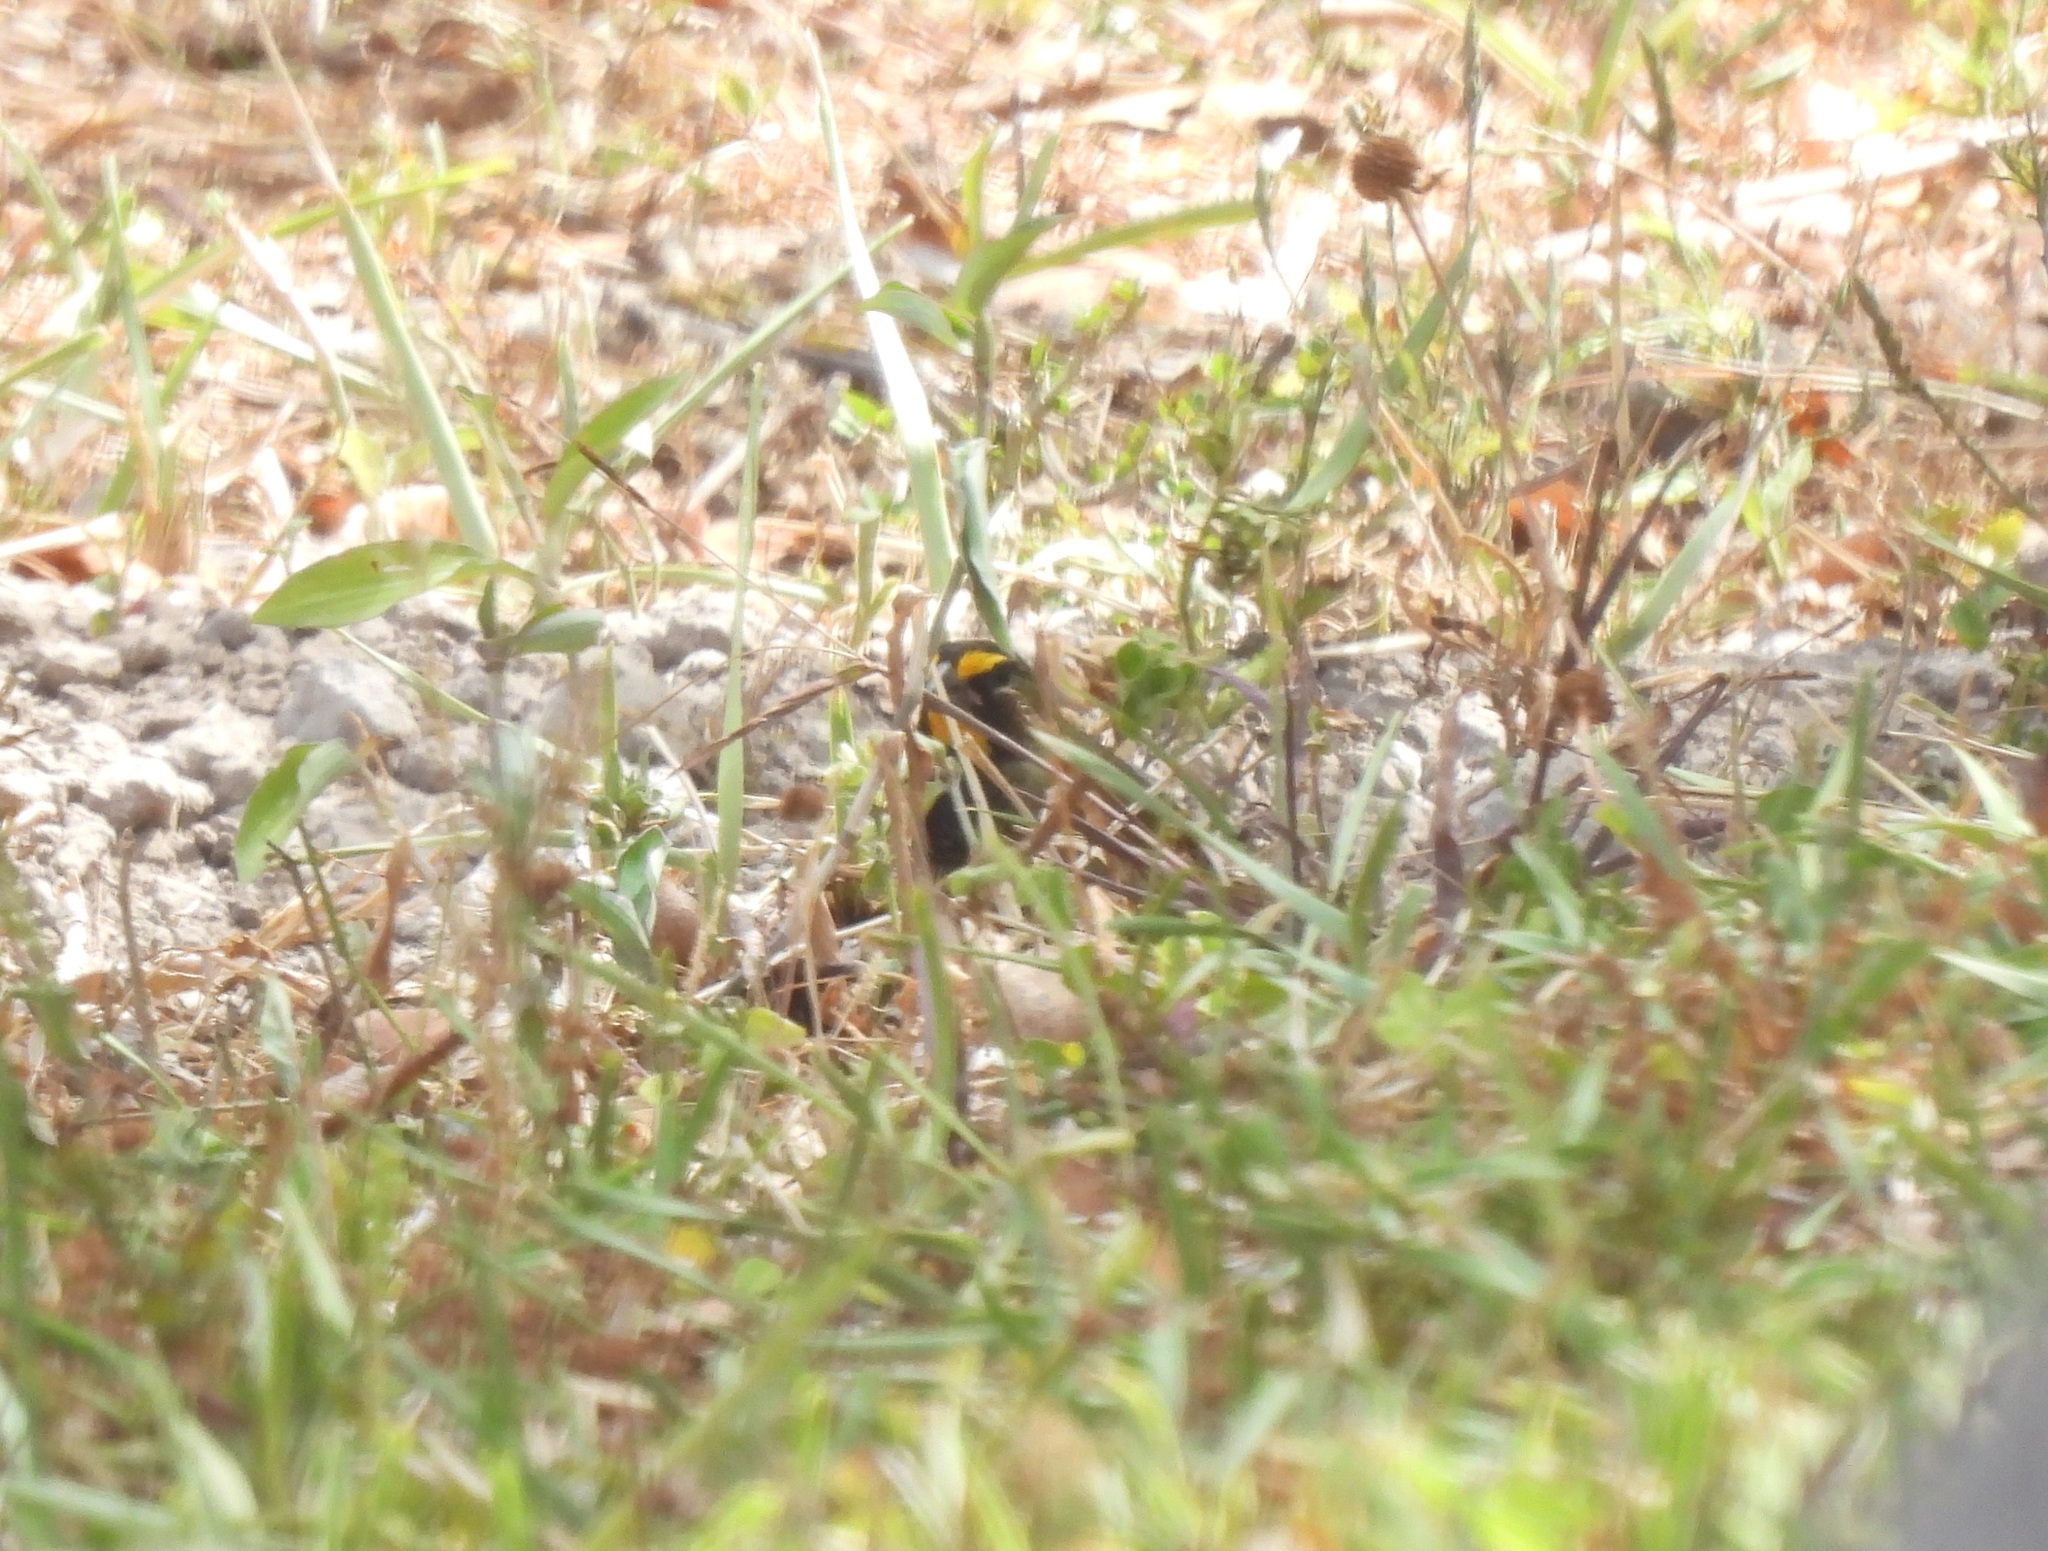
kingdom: Animalia
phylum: Chordata
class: Aves
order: Passeriformes
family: Thraupidae
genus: Tiaris
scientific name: Tiaris olivaceus
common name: Yellow-faced grassquit
